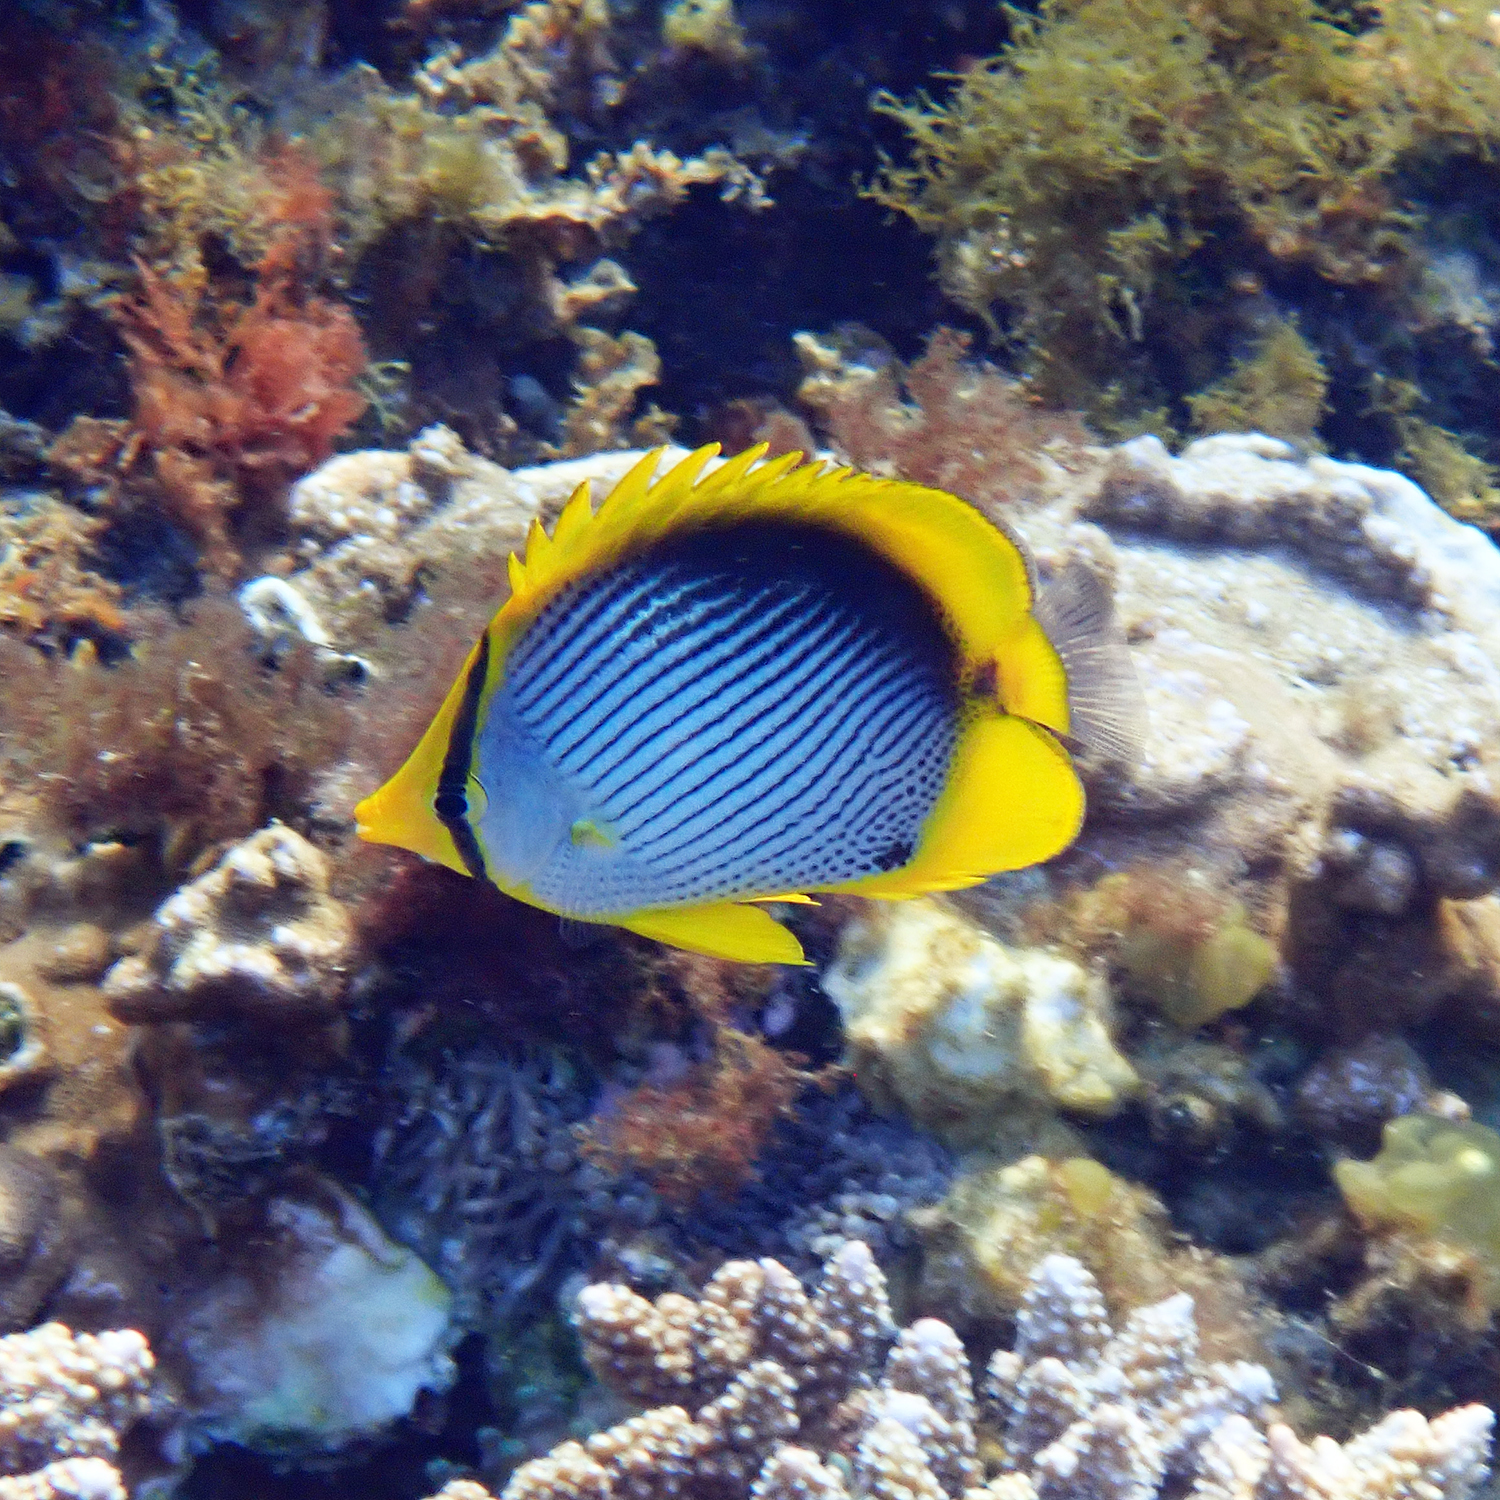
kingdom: Animalia
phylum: Chordata
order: Perciformes
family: Chaetodontidae
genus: Chaetodon
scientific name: Chaetodon melannotus
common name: Blackback butterflyfish
